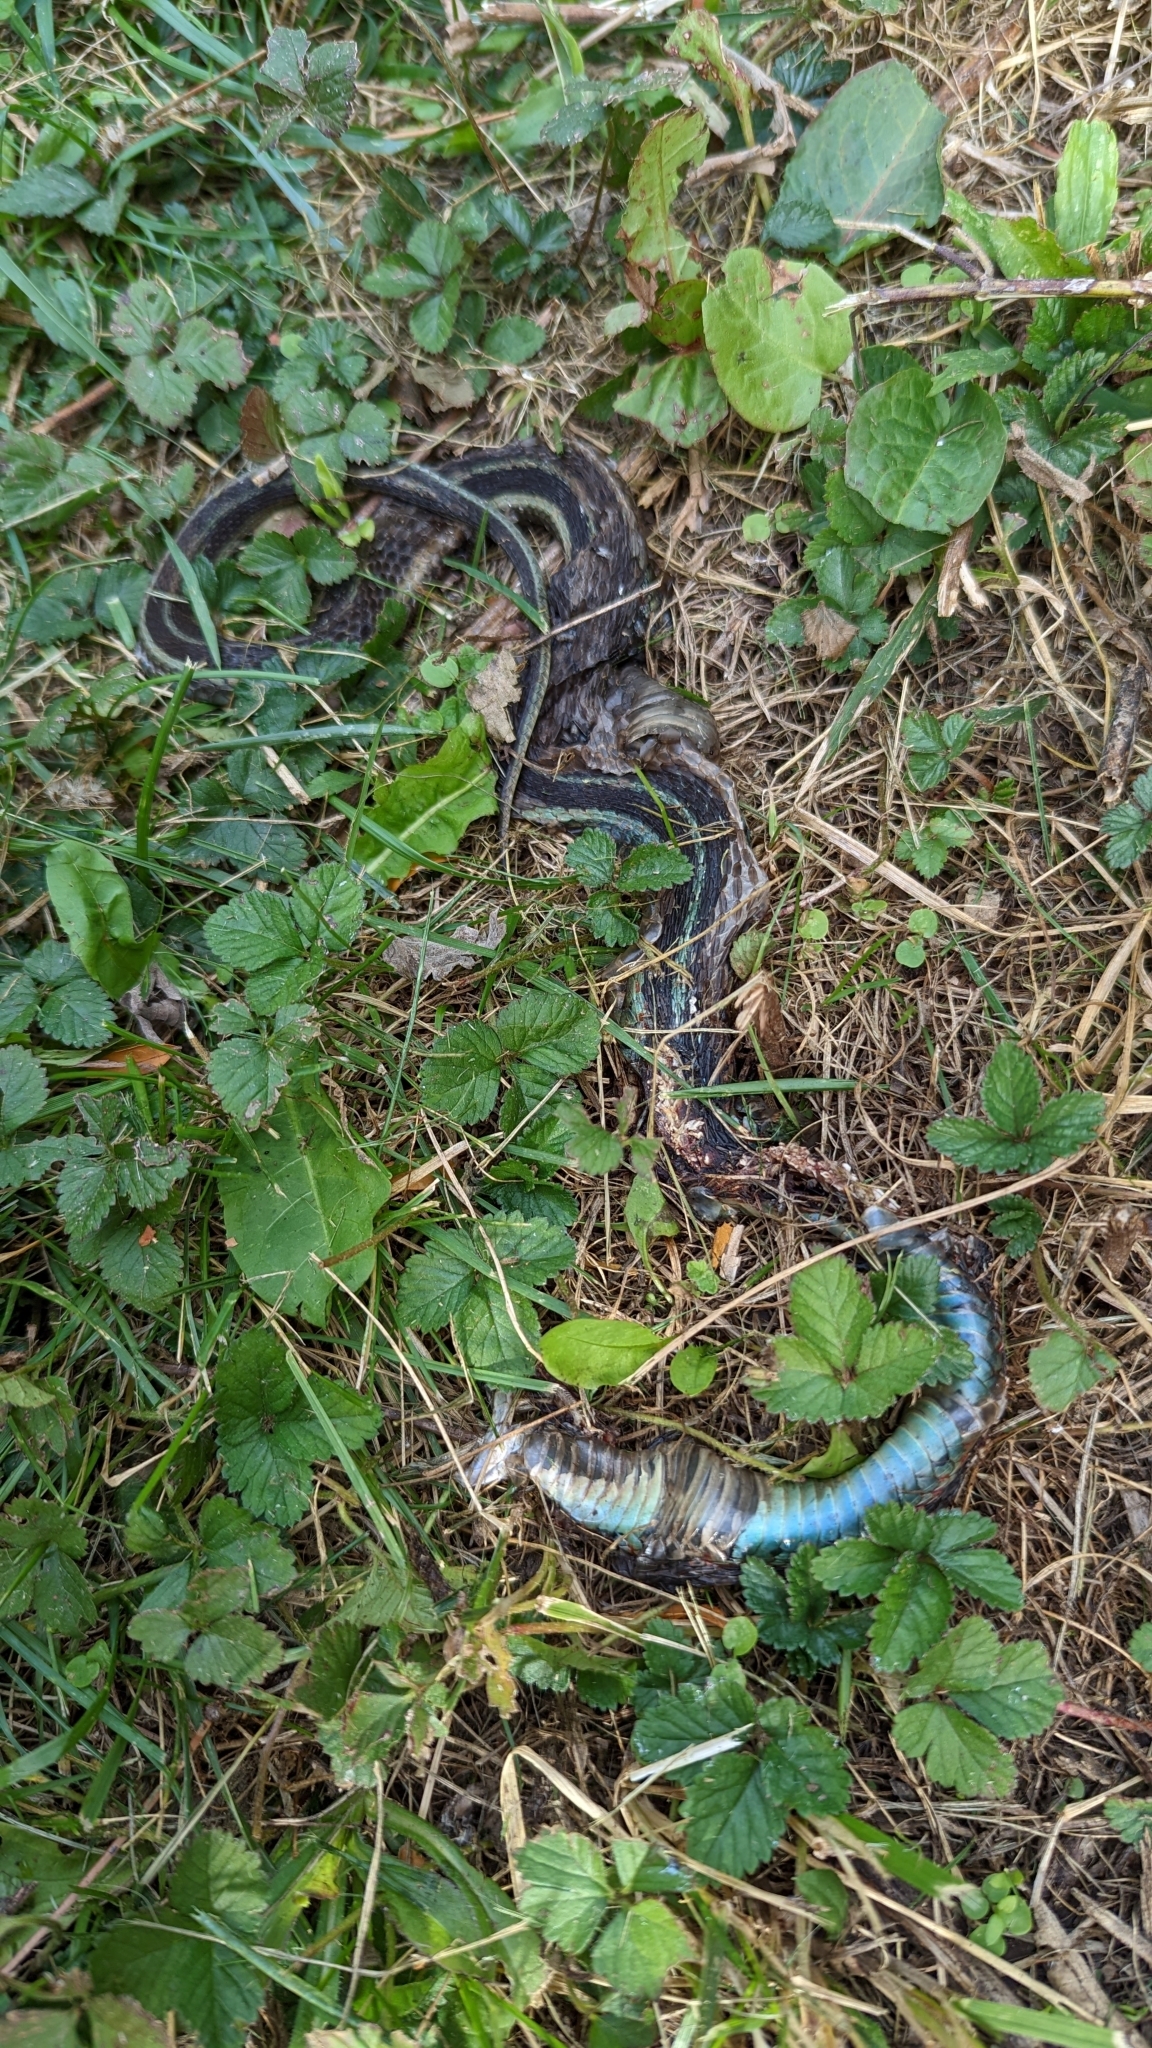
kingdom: Animalia
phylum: Chordata
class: Squamata
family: Colubridae
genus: Thamnophis
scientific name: Thamnophis sirtalis
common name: Common garter snake
